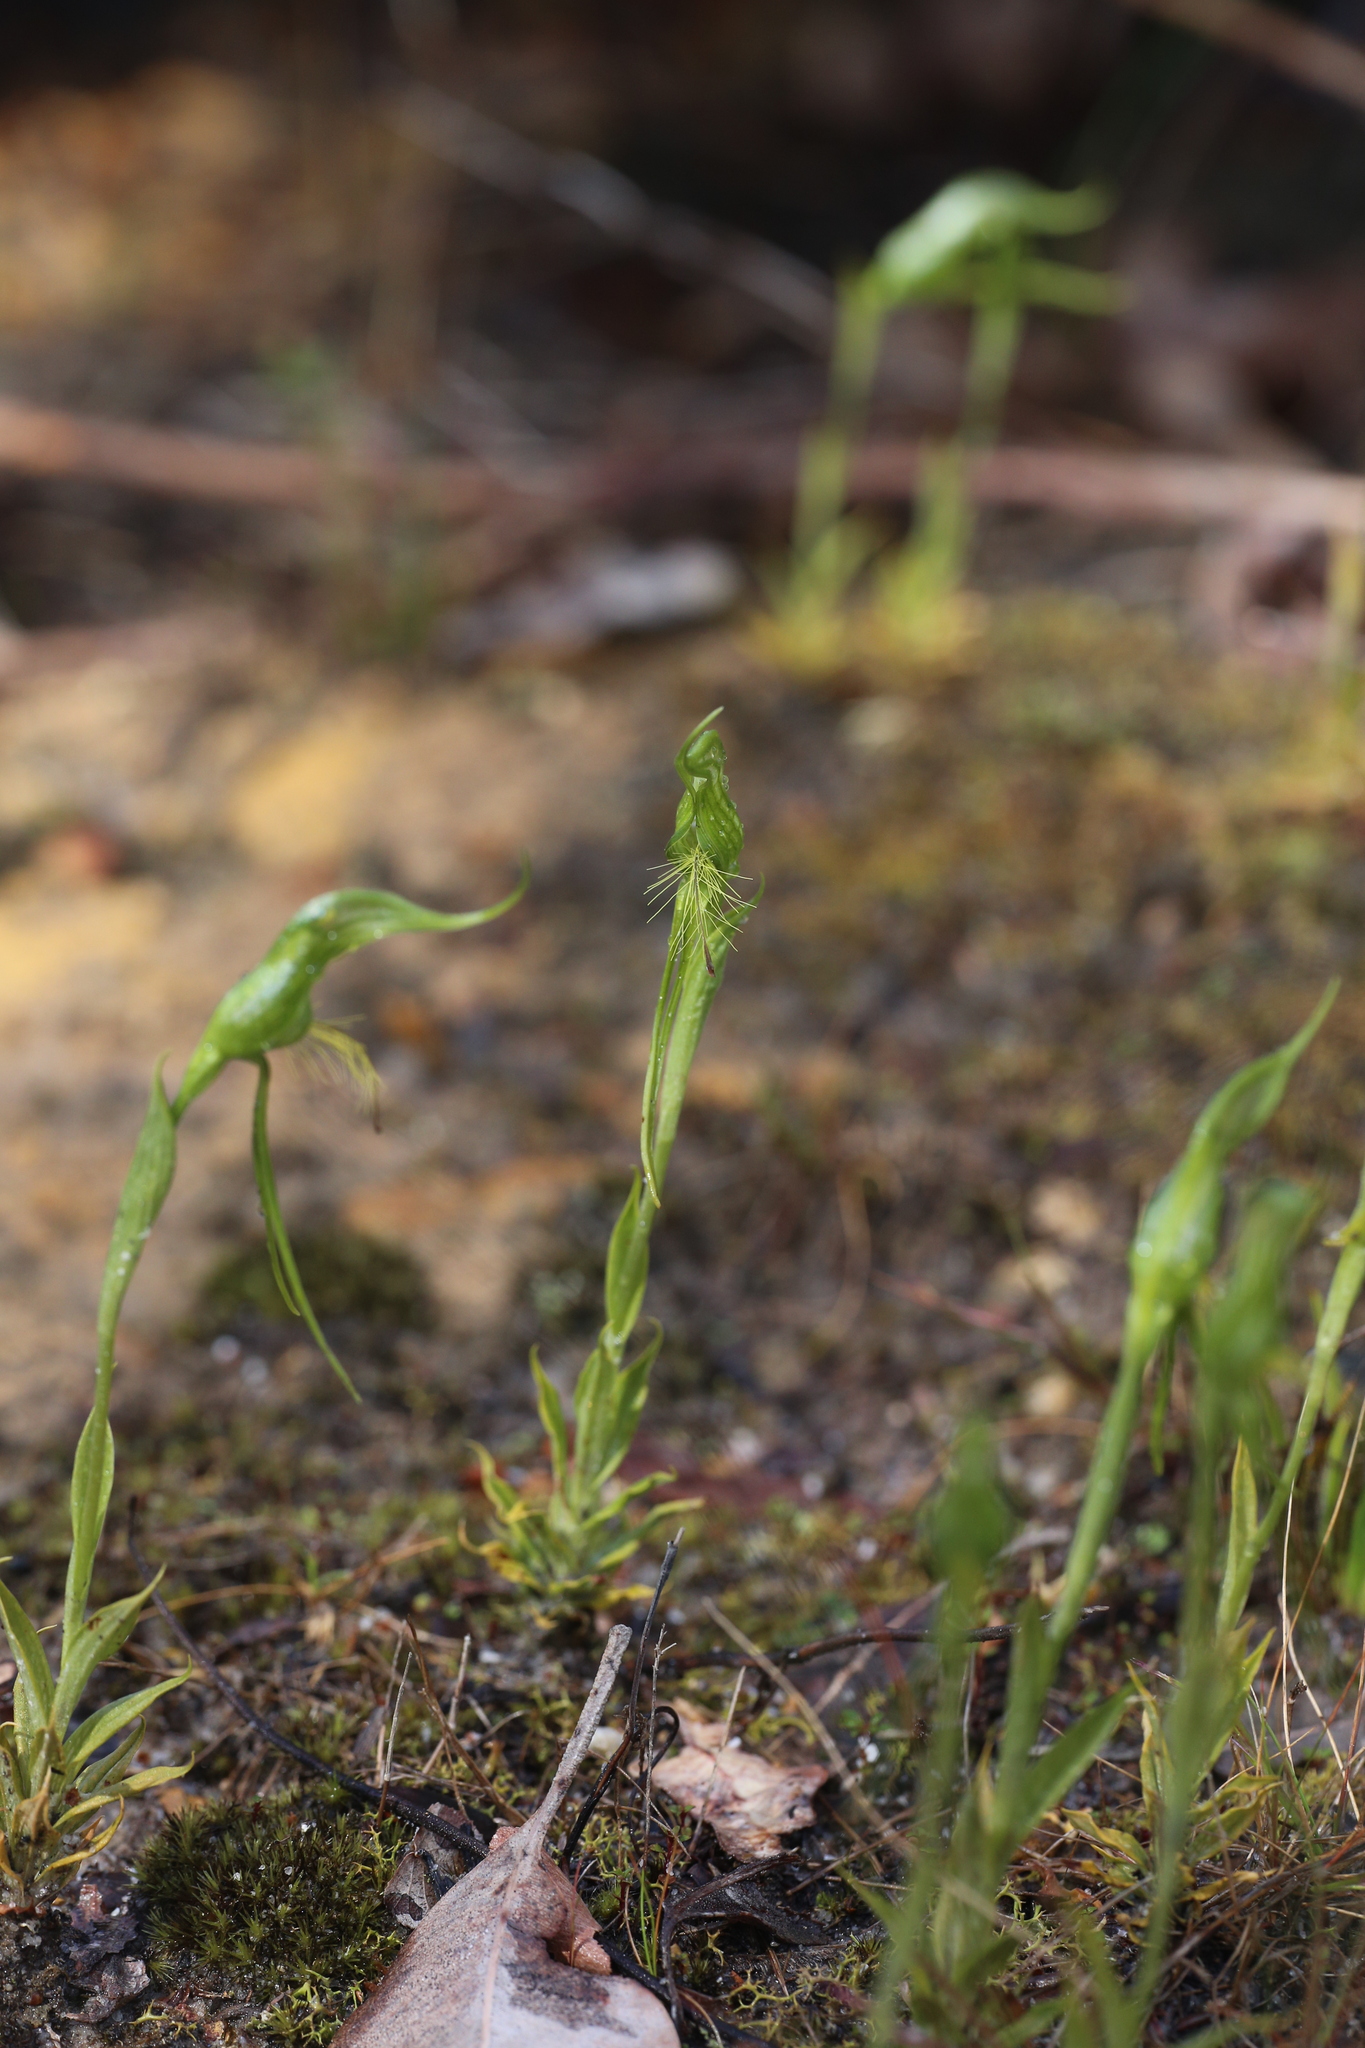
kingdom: Plantae
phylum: Tracheophyta
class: Liliopsida
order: Asparagales
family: Orchidaceae
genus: Pterostylis
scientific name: Pterostylis turfosa
